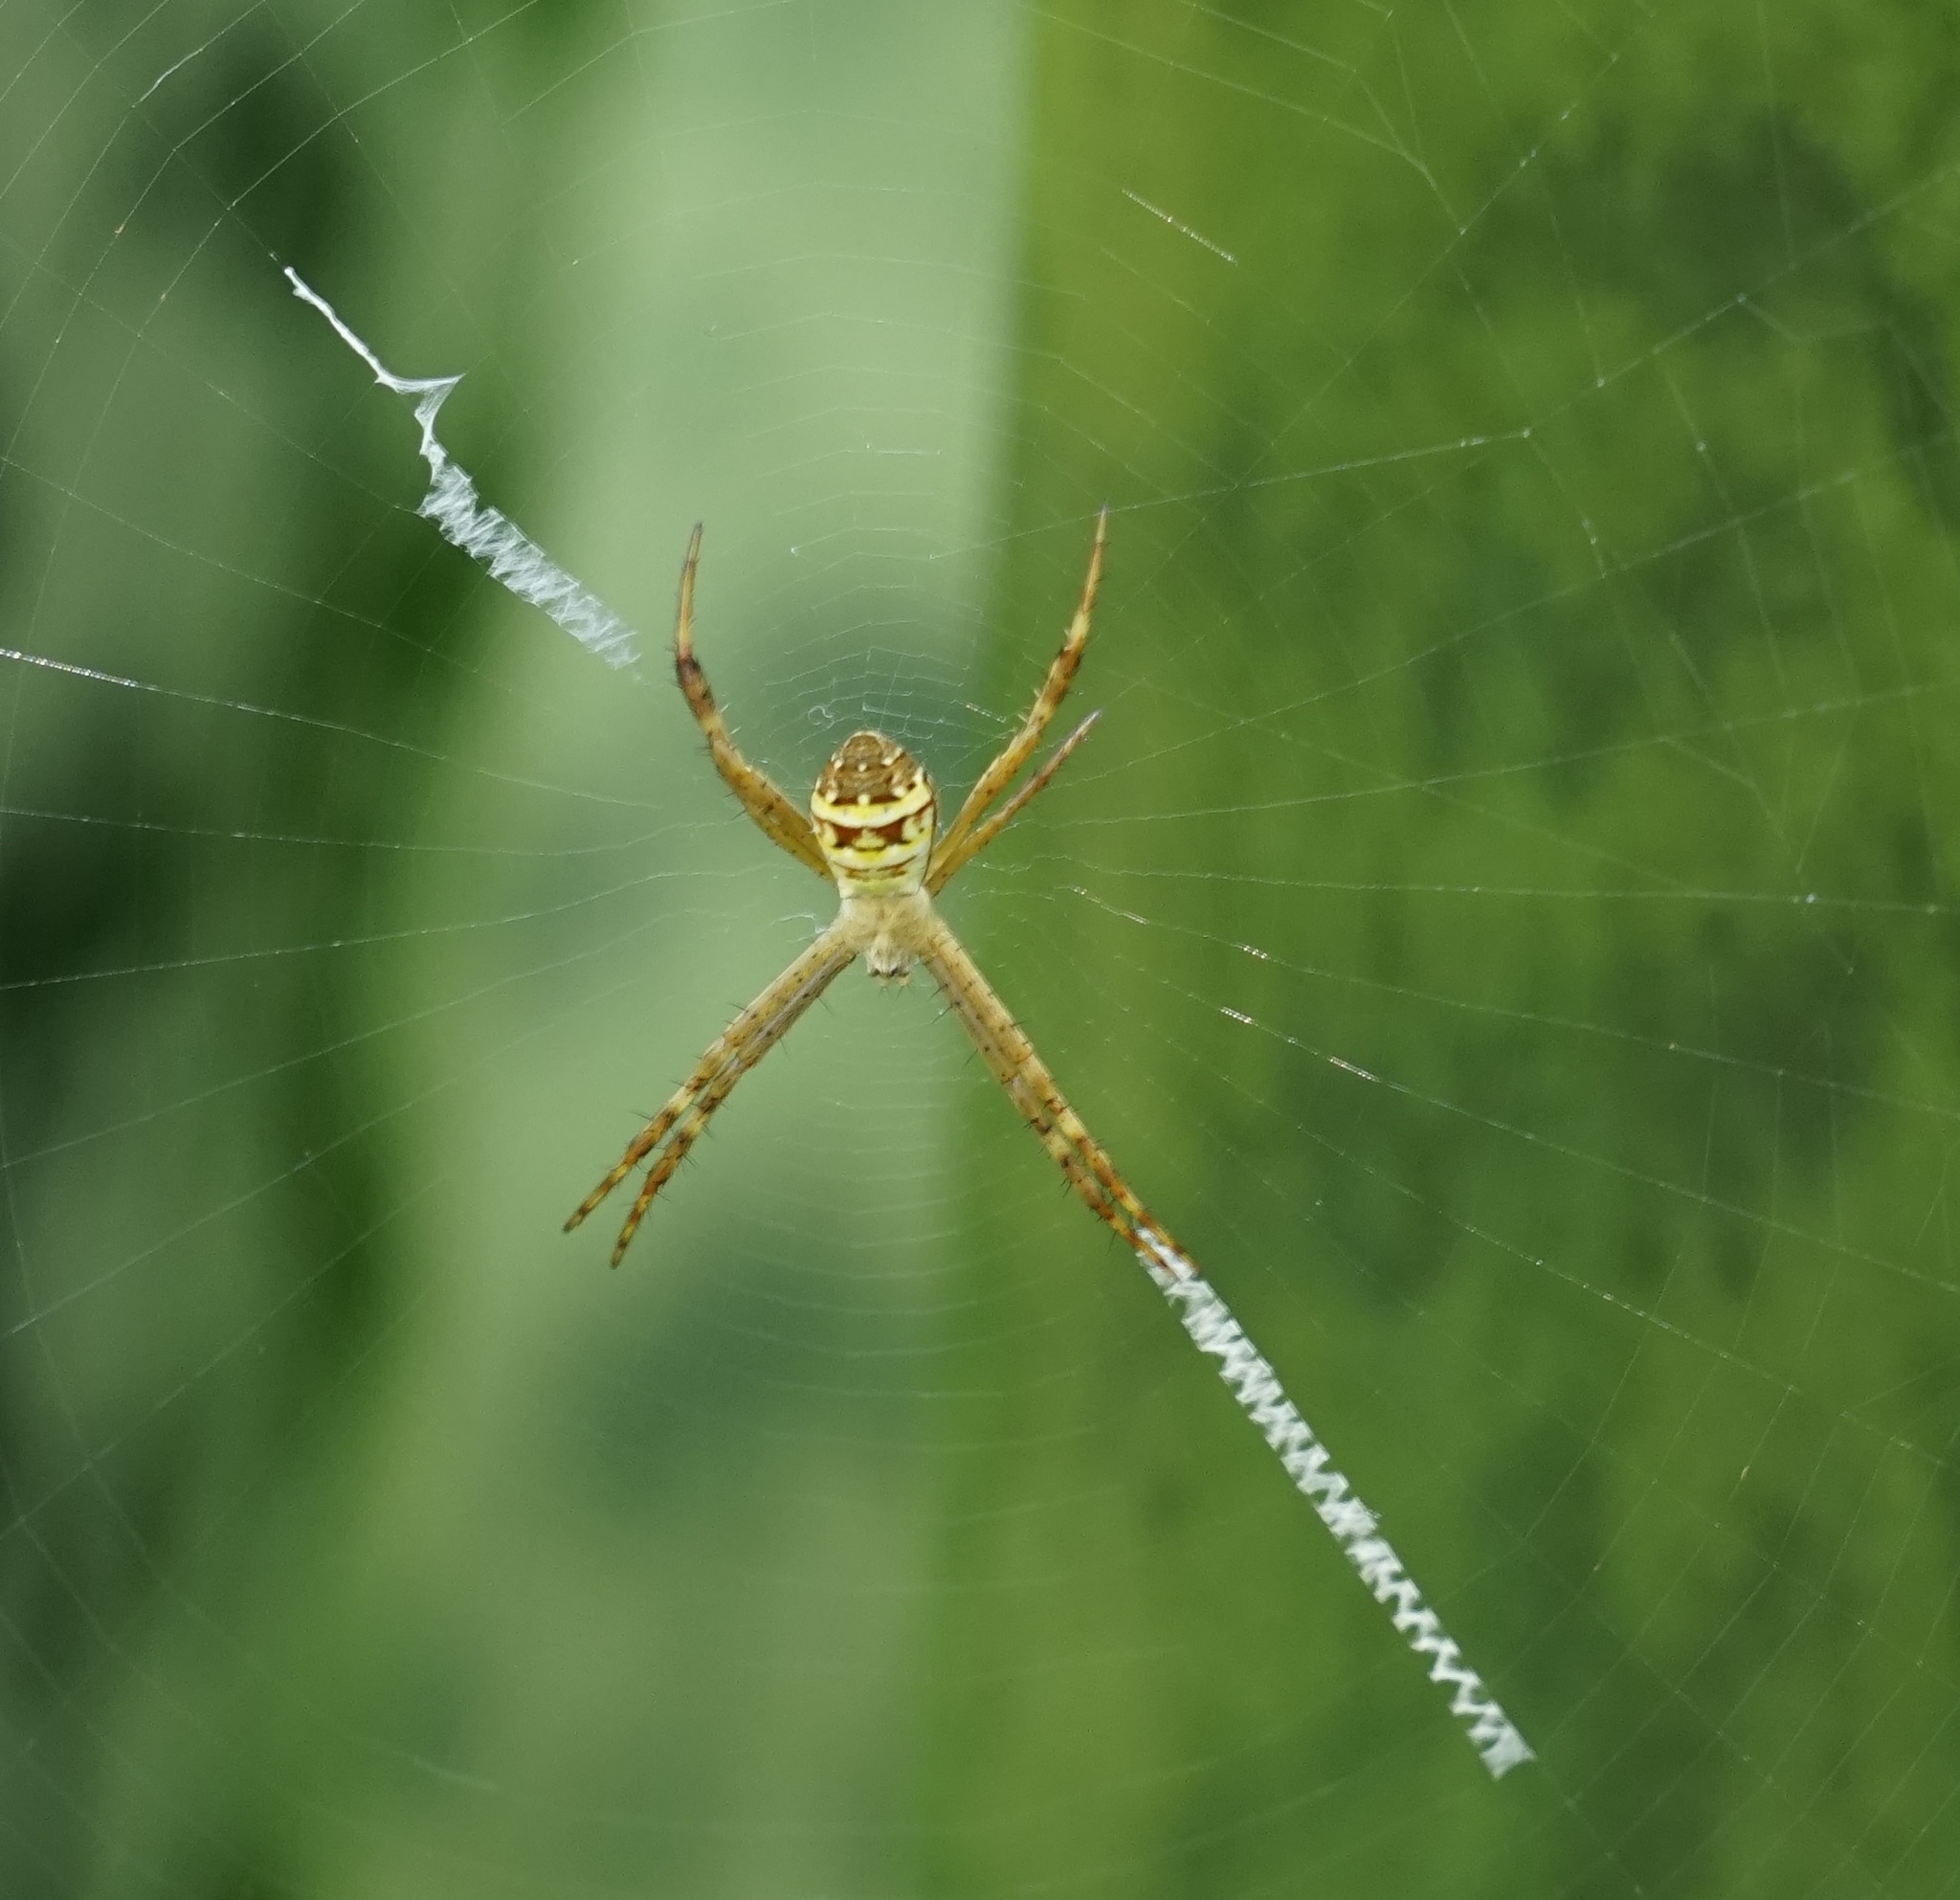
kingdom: Animalia
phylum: Arthropoda
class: Arachnida
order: Araneae
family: Araneidae
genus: Argiope
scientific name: Argiope keyserlingi
